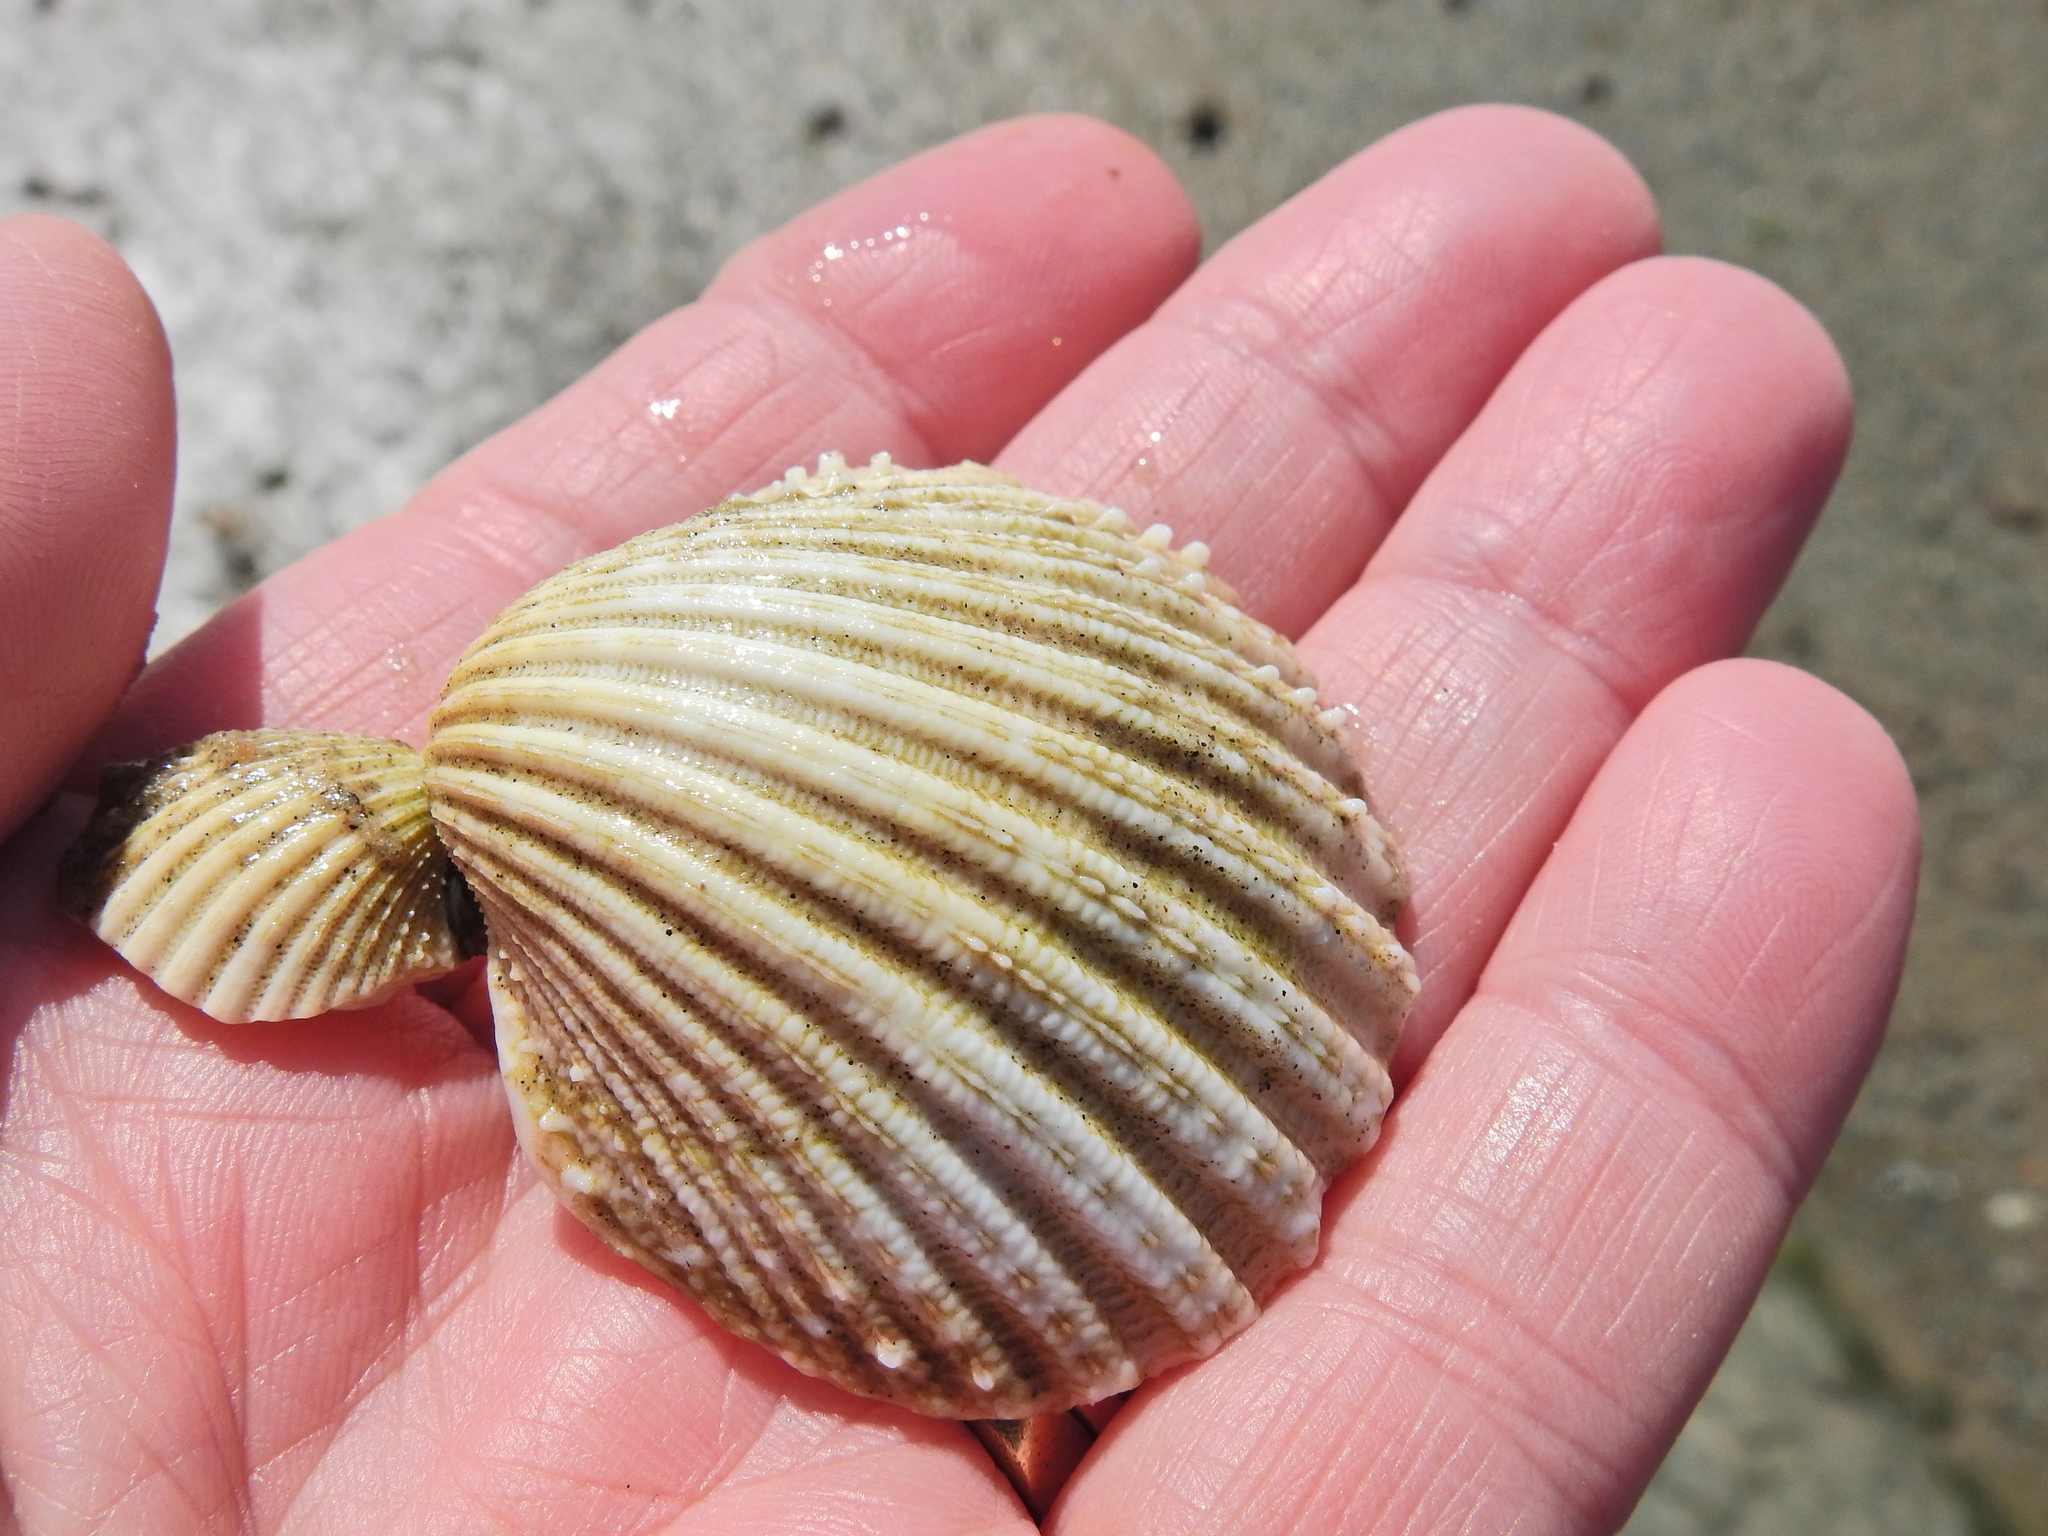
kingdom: Animalia
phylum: Mollusca
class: Bivalvia
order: Cardiida
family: Cardiidae
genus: Acanthocardia
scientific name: Acanthocardia echinata
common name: Prickly cockle
